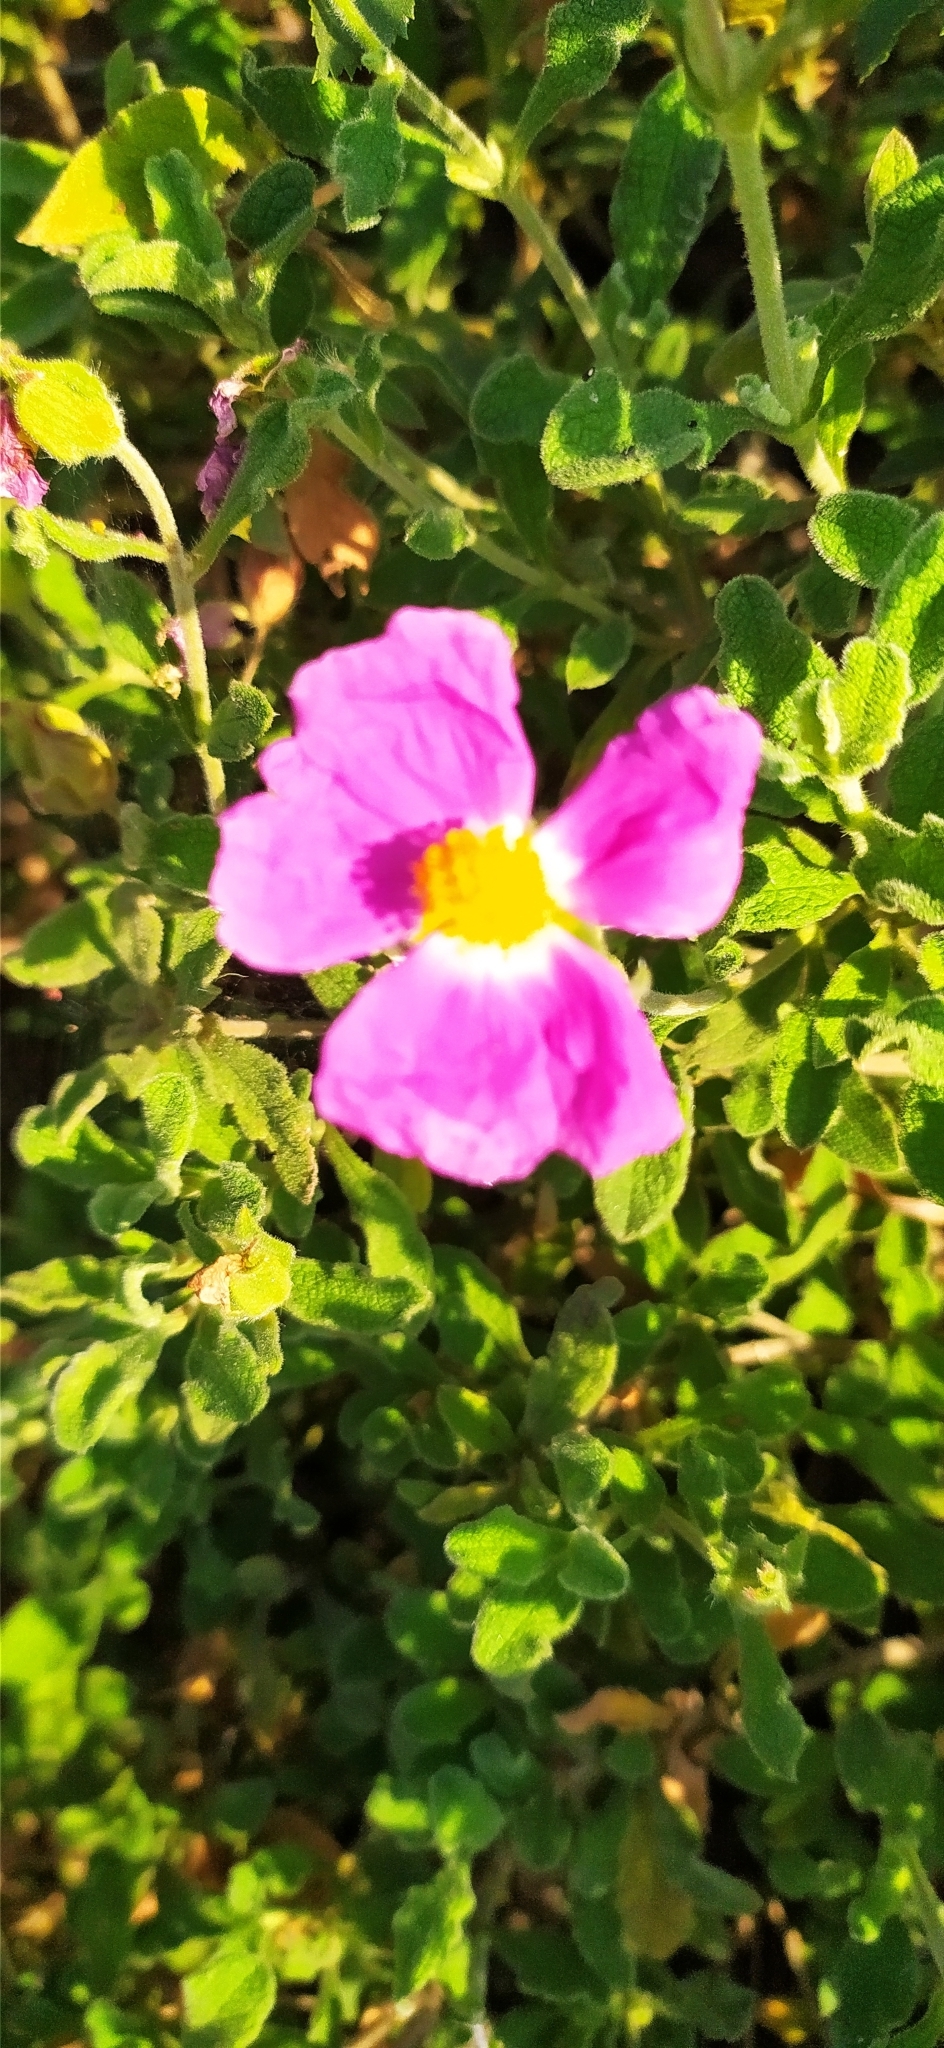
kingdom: Plantae
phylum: Tracheophyta
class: Magnoliopsida
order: Malvales
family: Cistaceae
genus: Cistus
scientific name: Cistus tauricus
